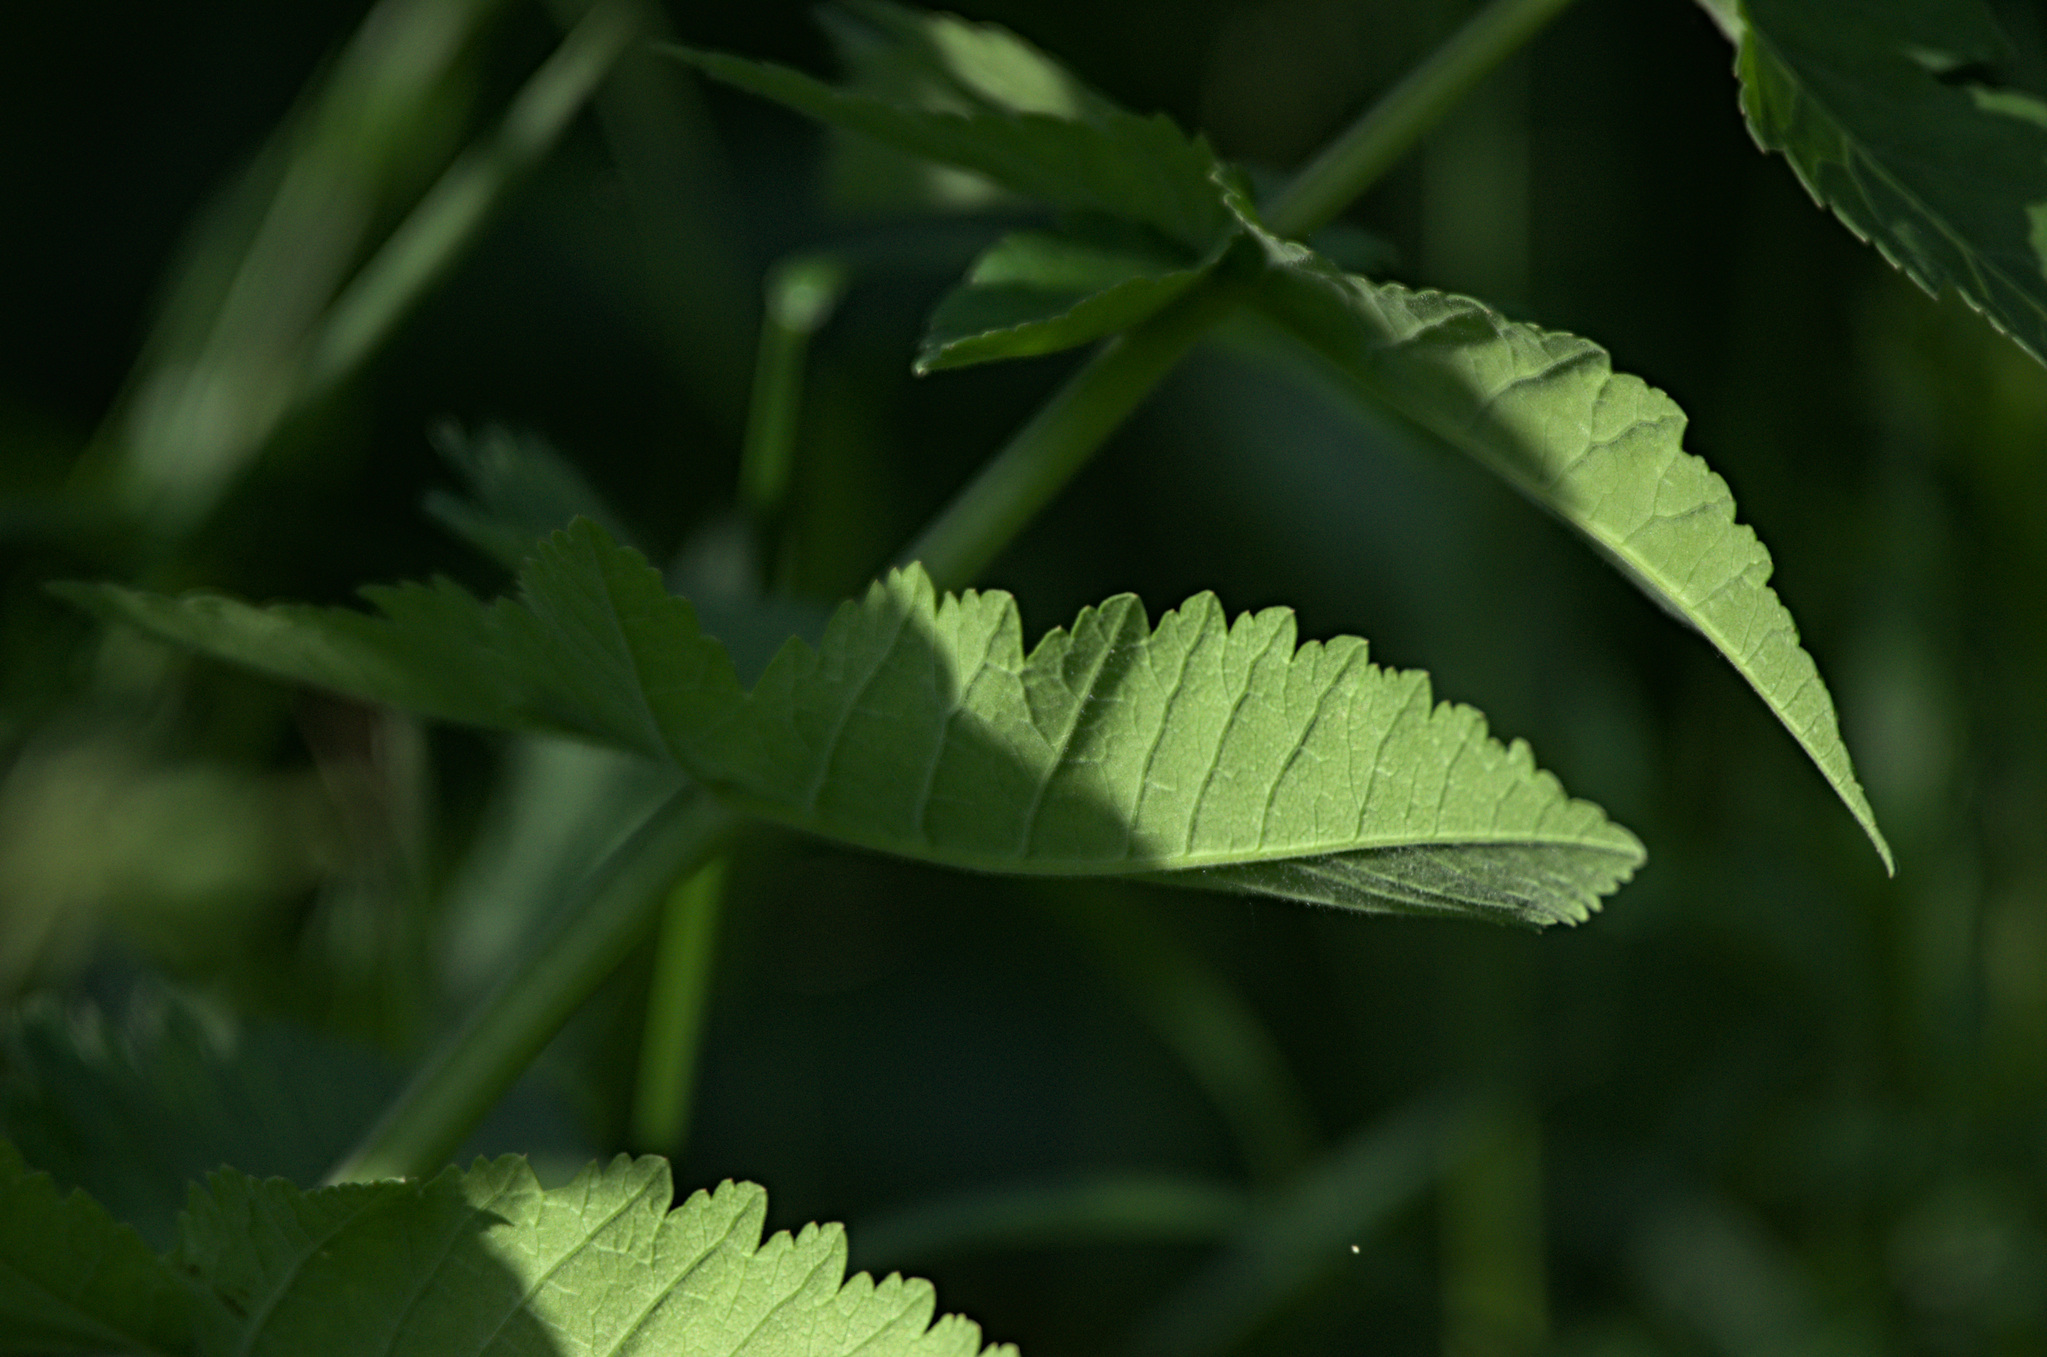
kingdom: Plantae
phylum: Tracheophyta
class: Magnoliopsida
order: Apiales
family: Apiaceae
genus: Pastinaca
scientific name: Pastinaca sativa
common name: Wild parsnip
